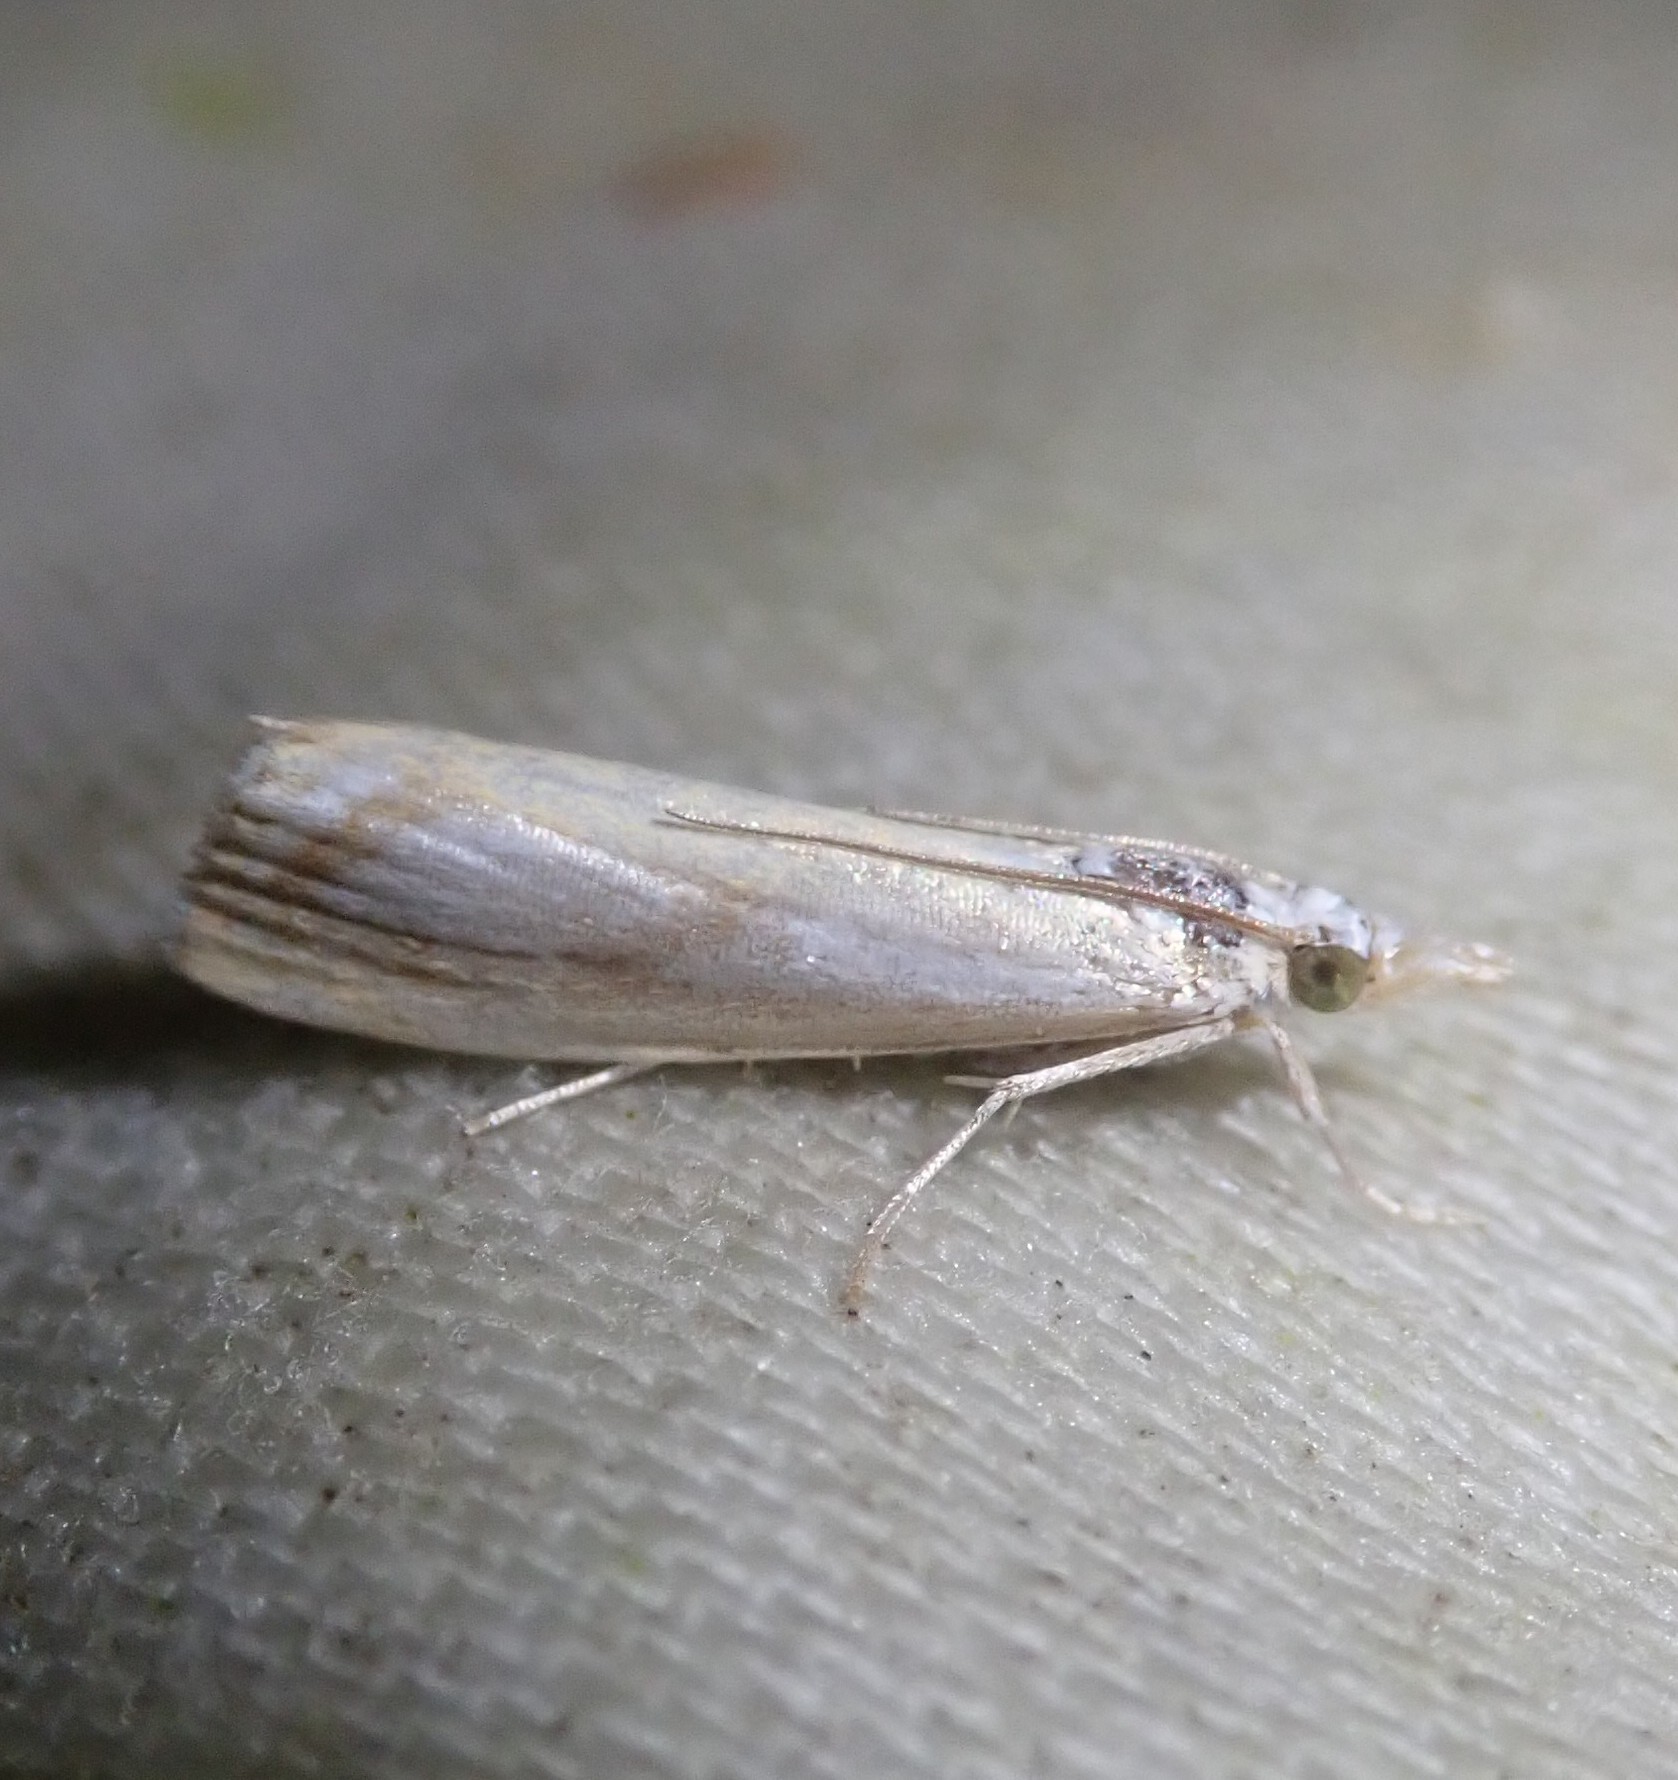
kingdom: Animalia
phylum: Arthropoda
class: Insecta
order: Lepidoptera
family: Crambidae
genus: Catoptria
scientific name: Catoptria
